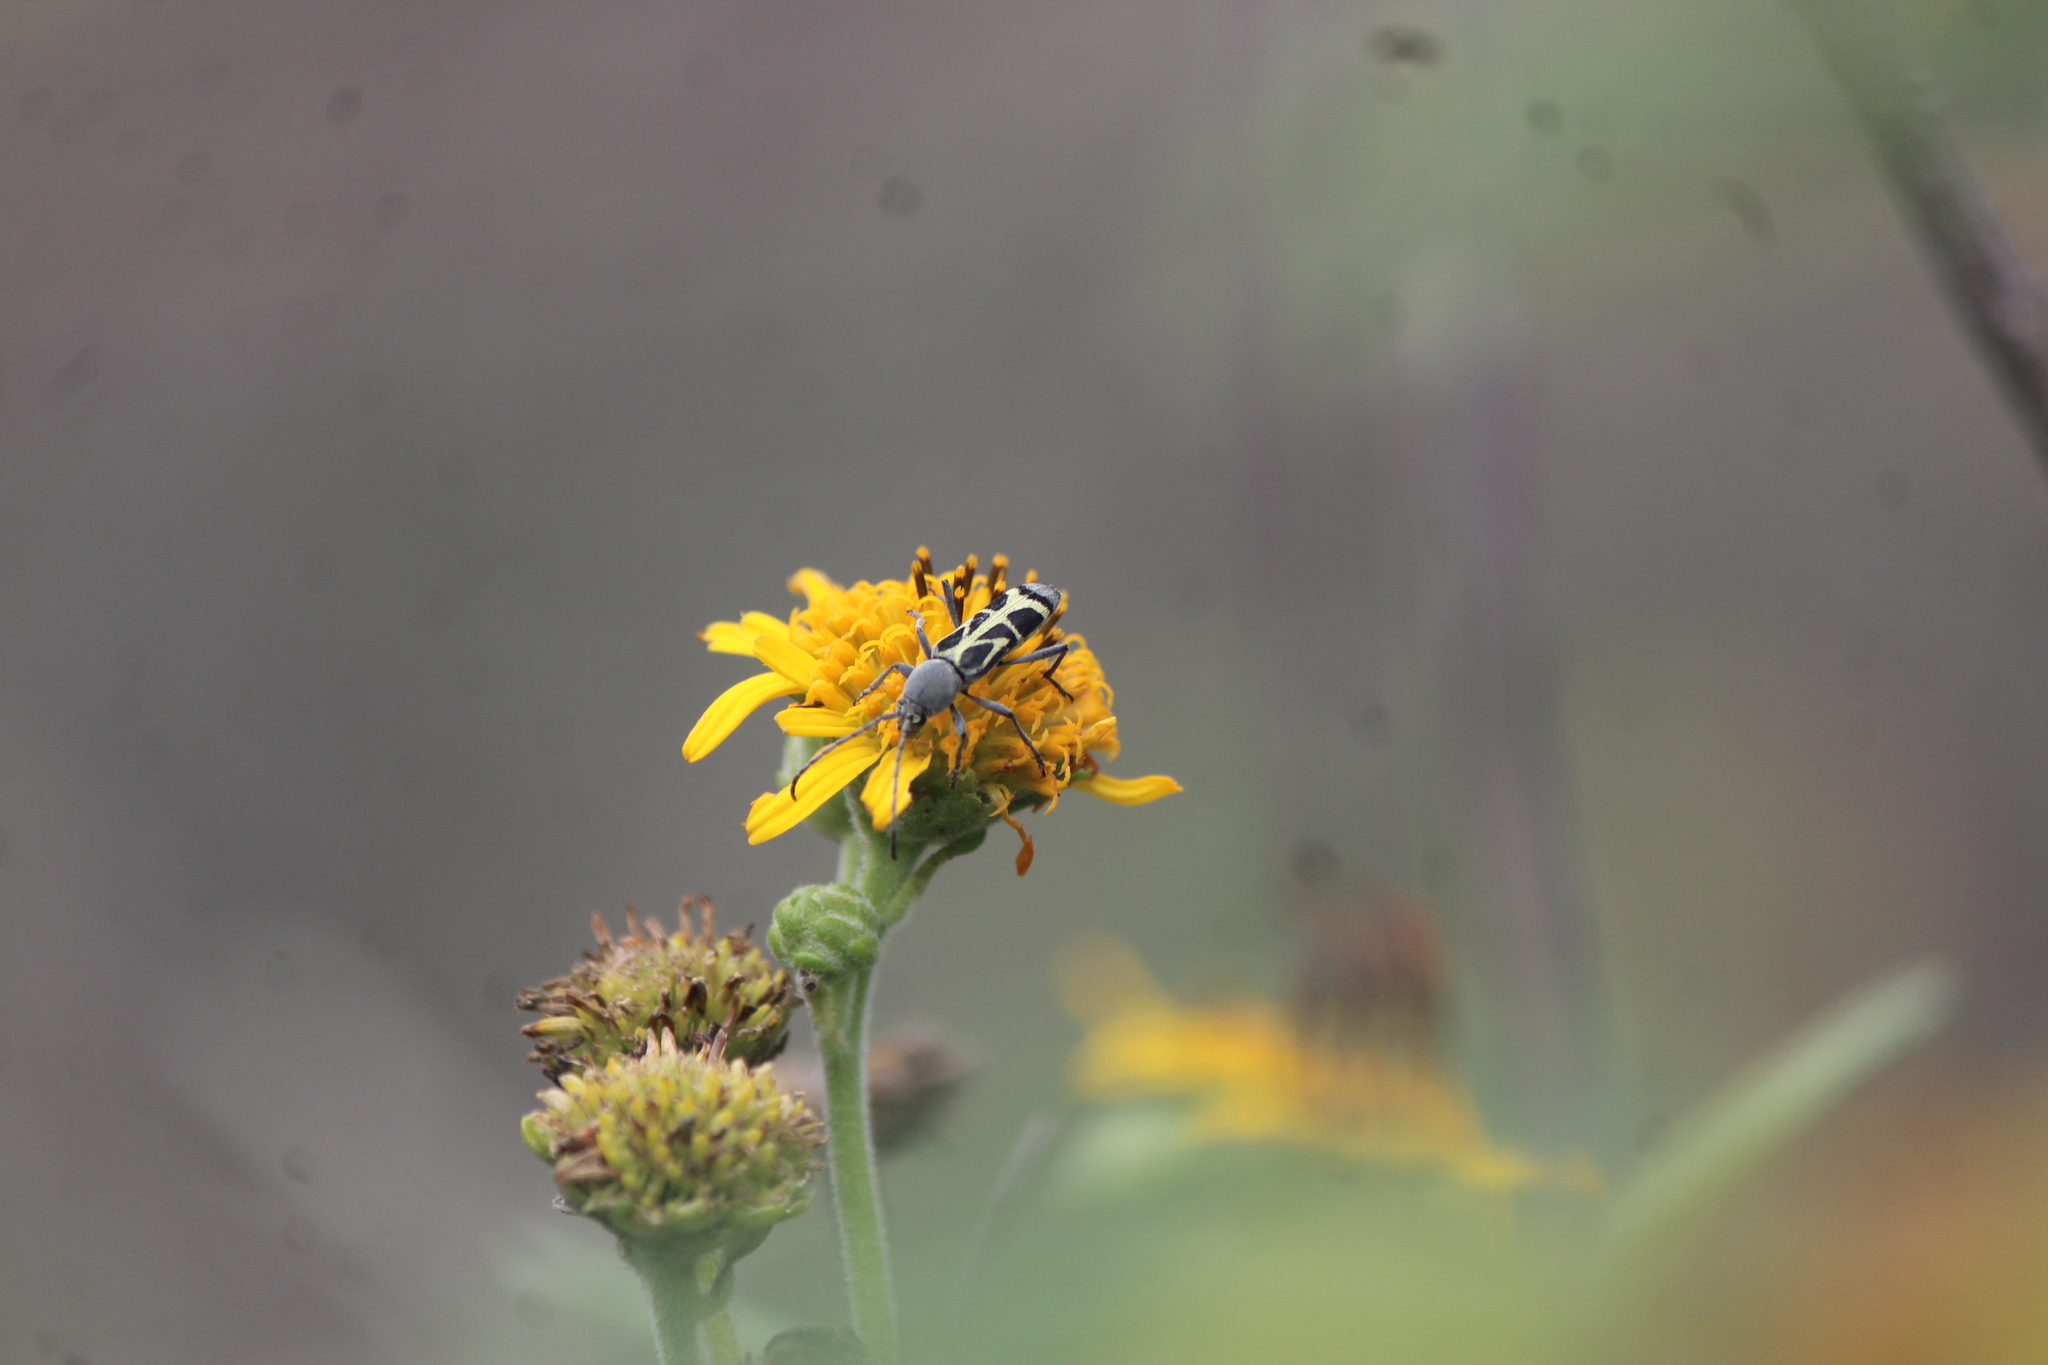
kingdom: Animalia
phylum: Arthropoda
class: Insecta
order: Coleoptera
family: Cerambycidae
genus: Tanyochraethes
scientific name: Tanyochraethes clathratus
